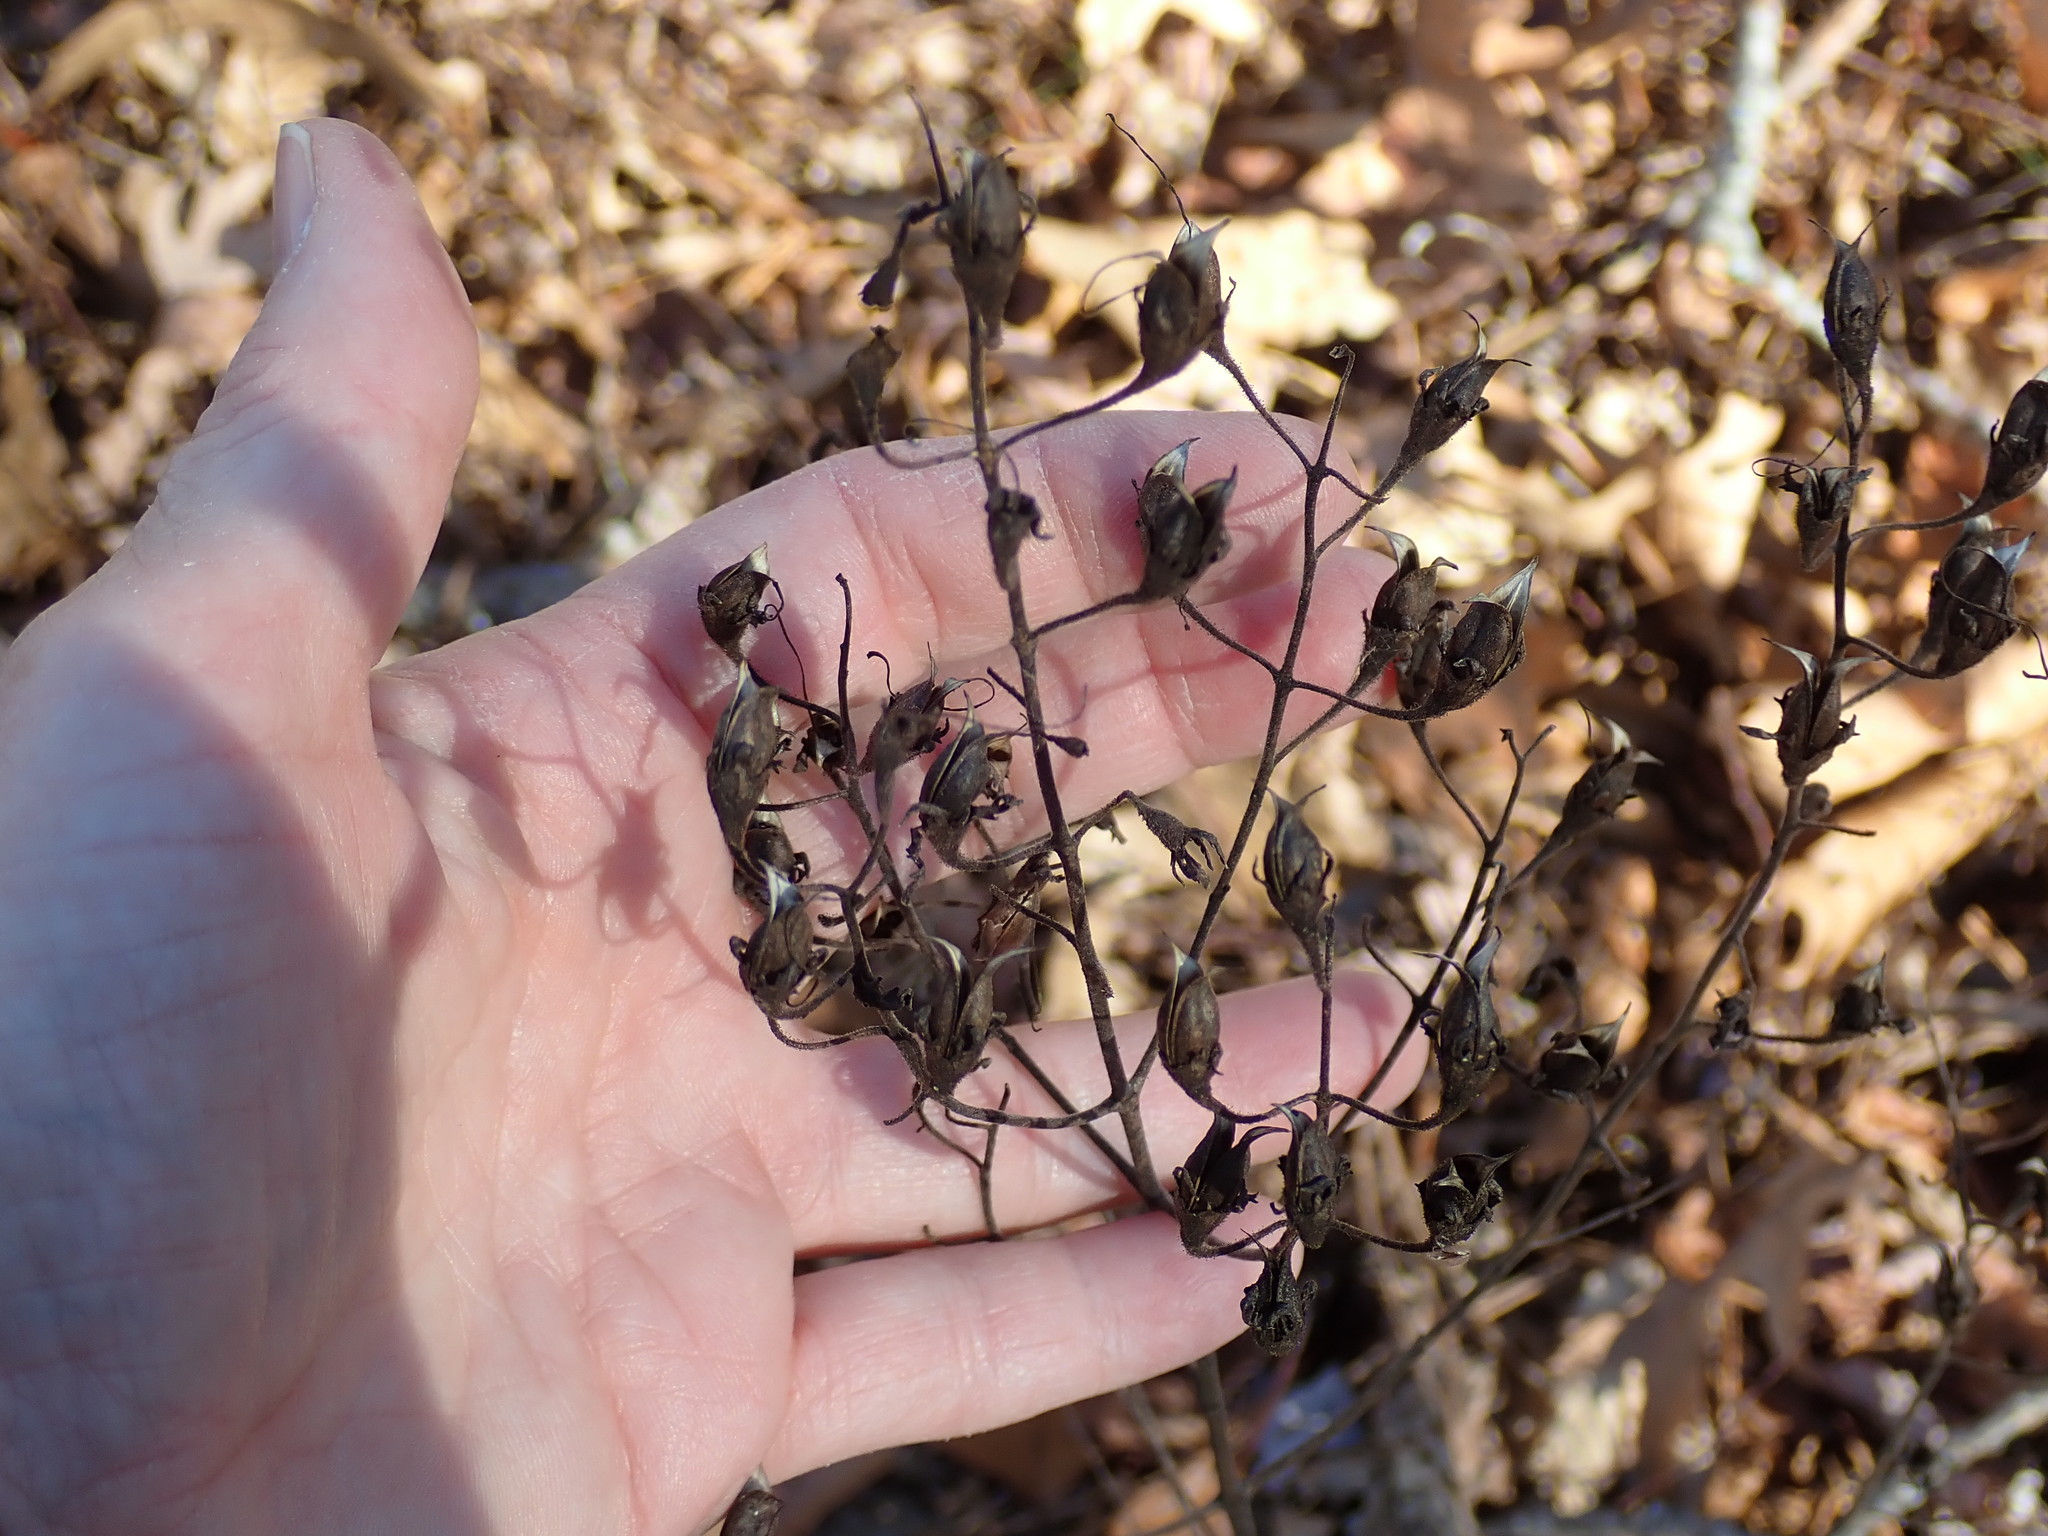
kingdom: Plantae
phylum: Tracheophyta
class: Magnoliopsida
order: Lamiales
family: Orobanchaceae
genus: Aureolaria
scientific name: Aureolaria pedicularia
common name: Annual false foxglove
